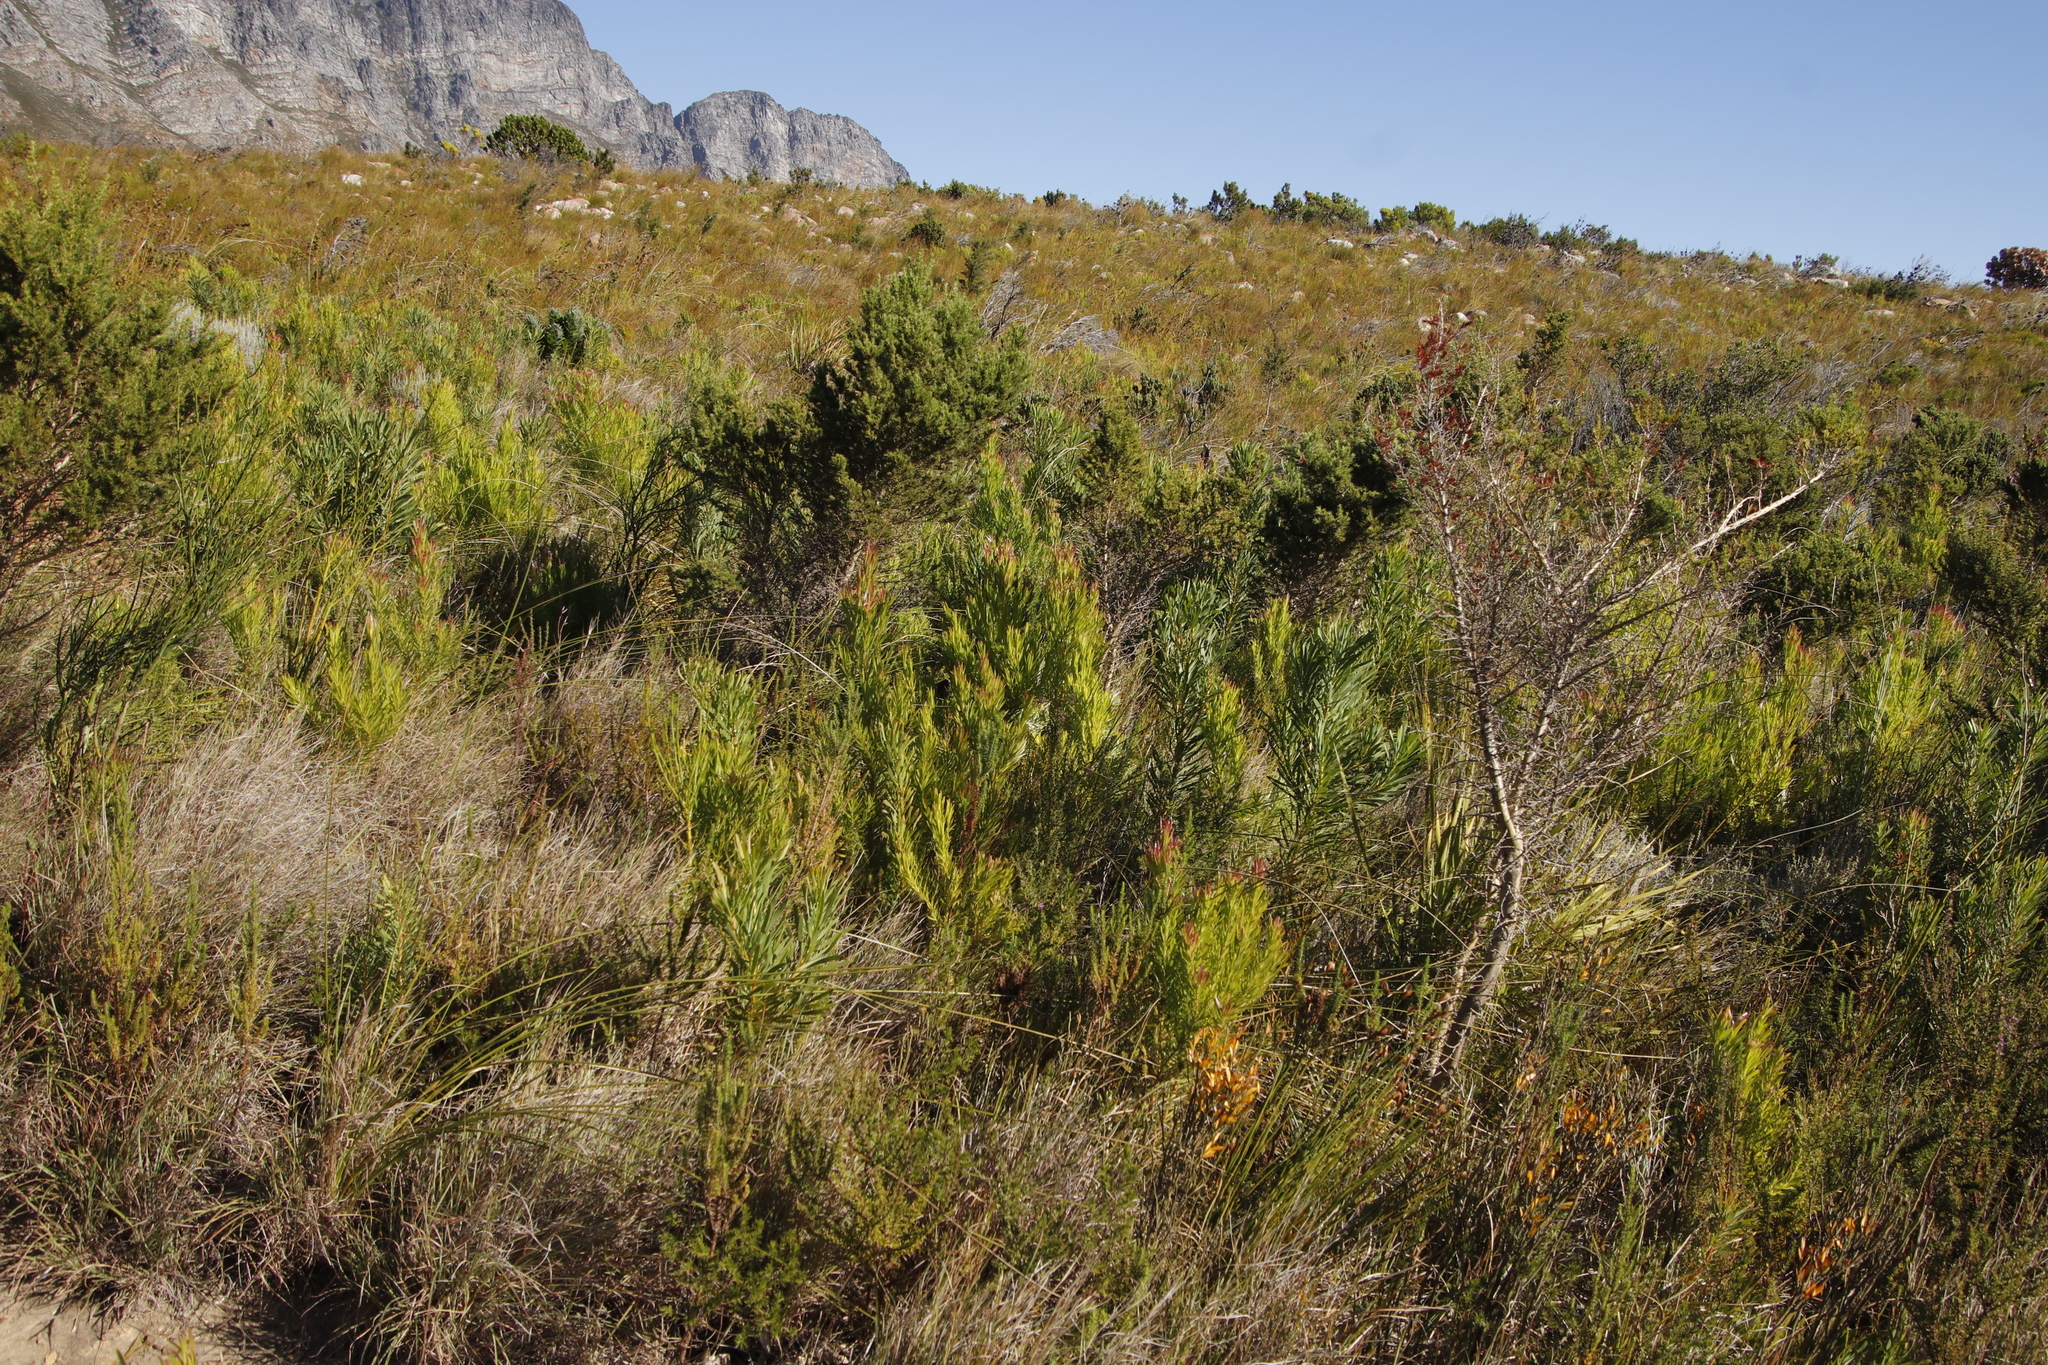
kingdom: Plantae
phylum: Tracheophyta
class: Magnoliopsida
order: Proteales
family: Proteaceae
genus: Leucadendron
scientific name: Leucadendron xanthoconus
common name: Sickle-leaf conebush
